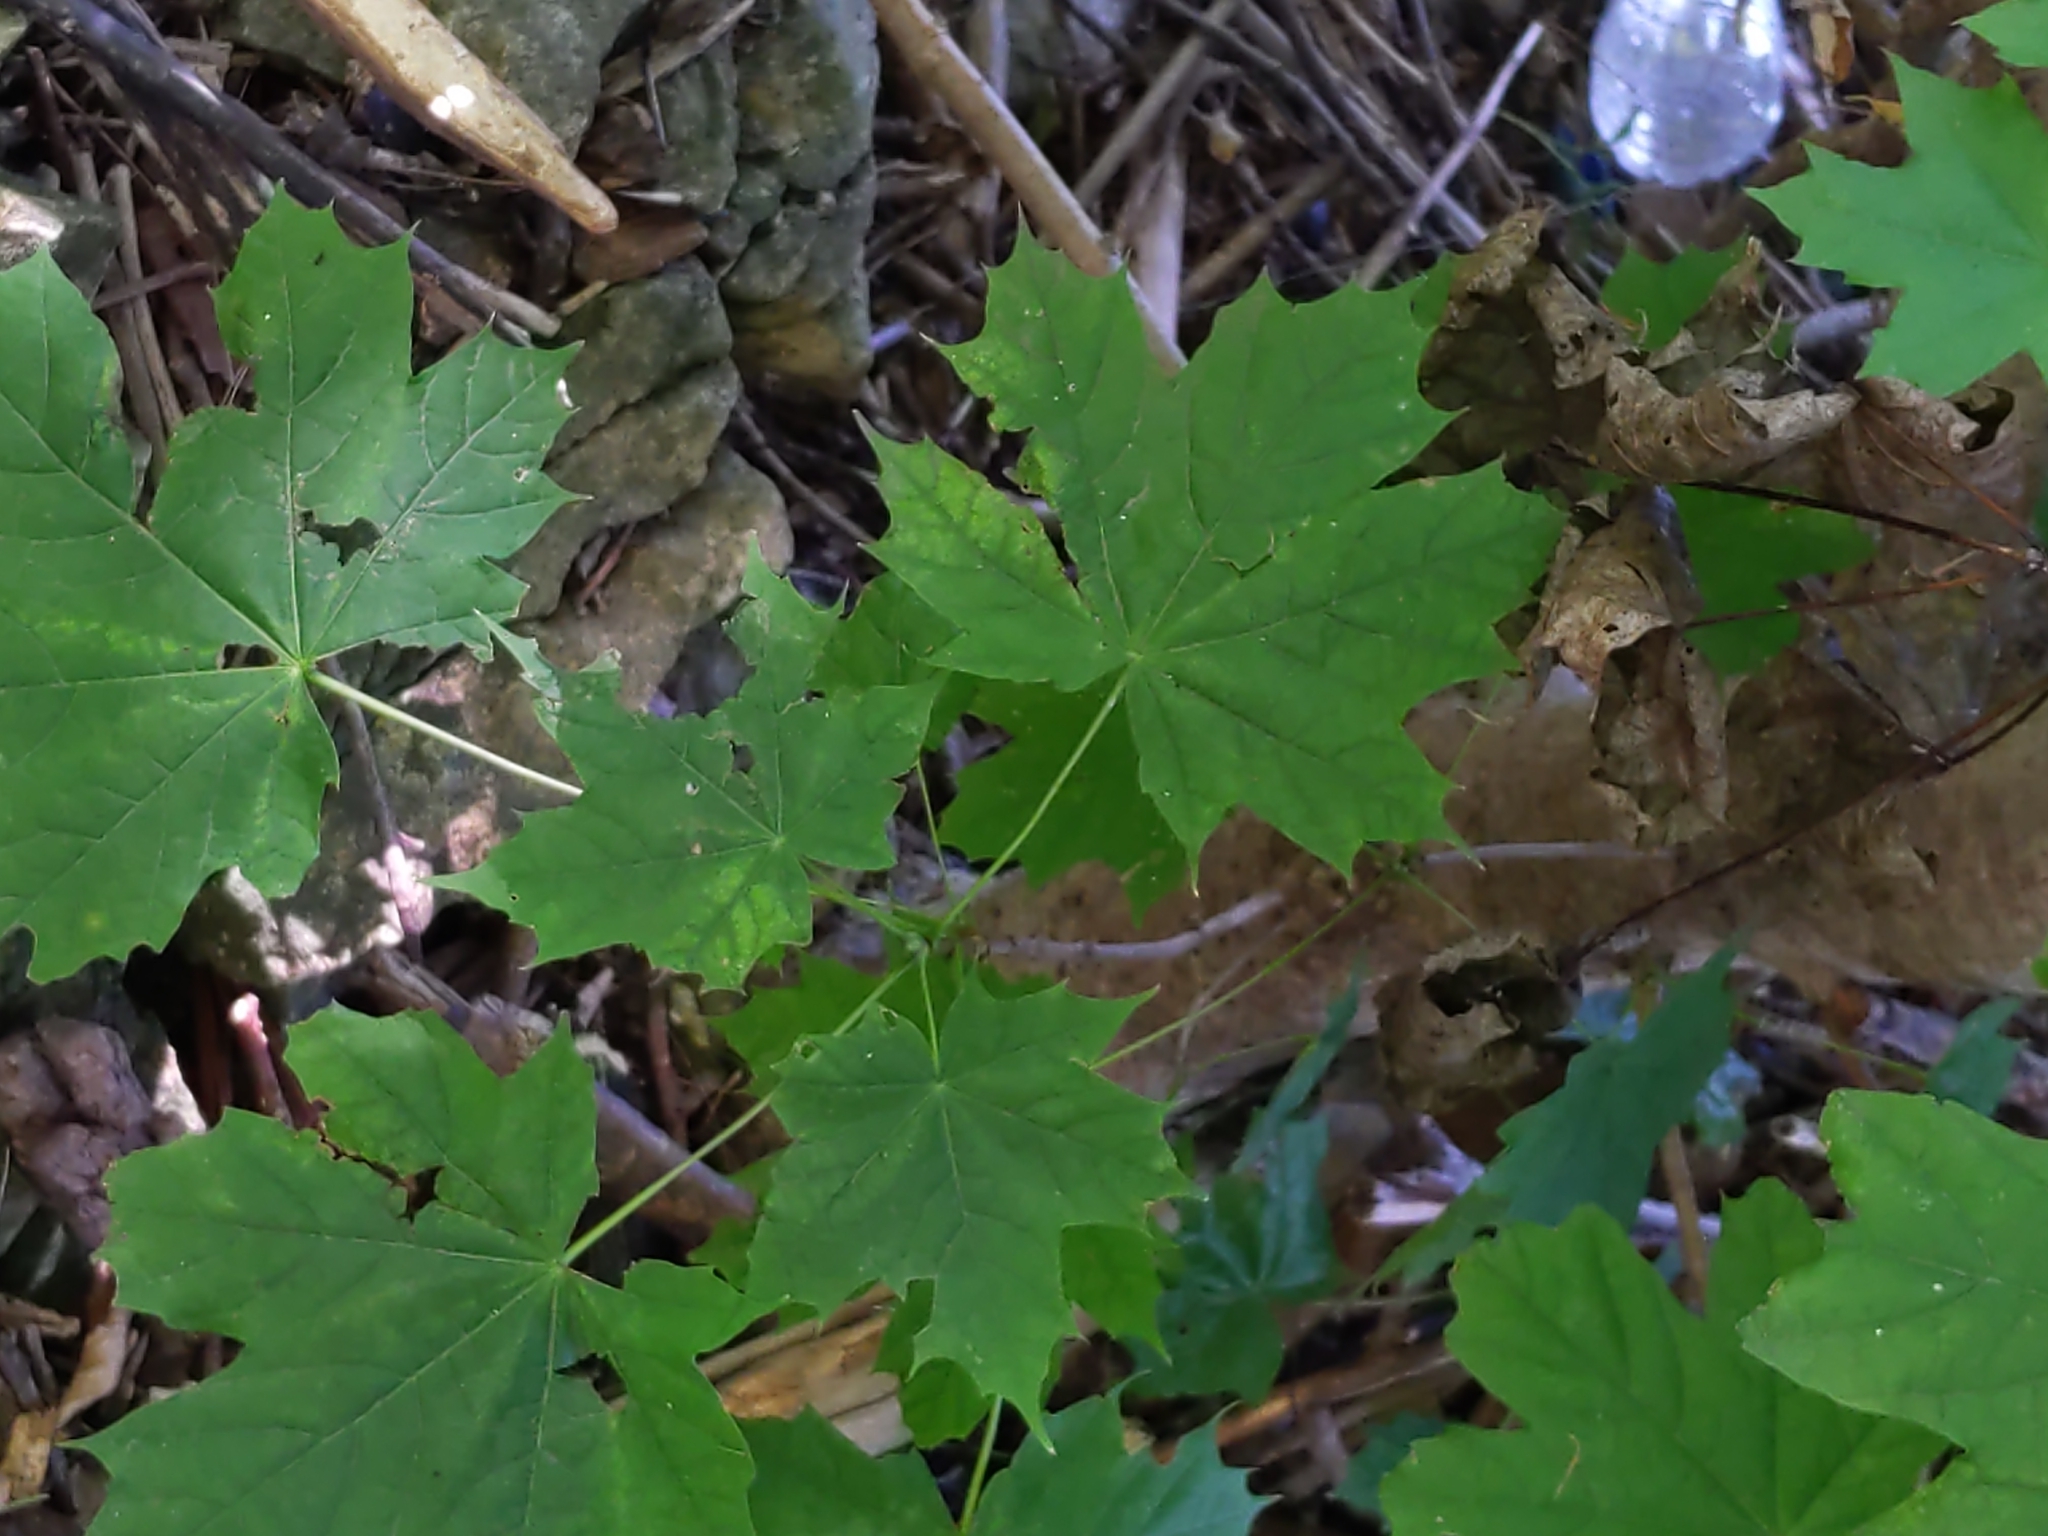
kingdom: Plantae
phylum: Tracheophyta
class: Magnoliopsida
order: Sapindales
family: Sapindaceae
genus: Acer
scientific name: Acer platanoides
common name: Norway maple
